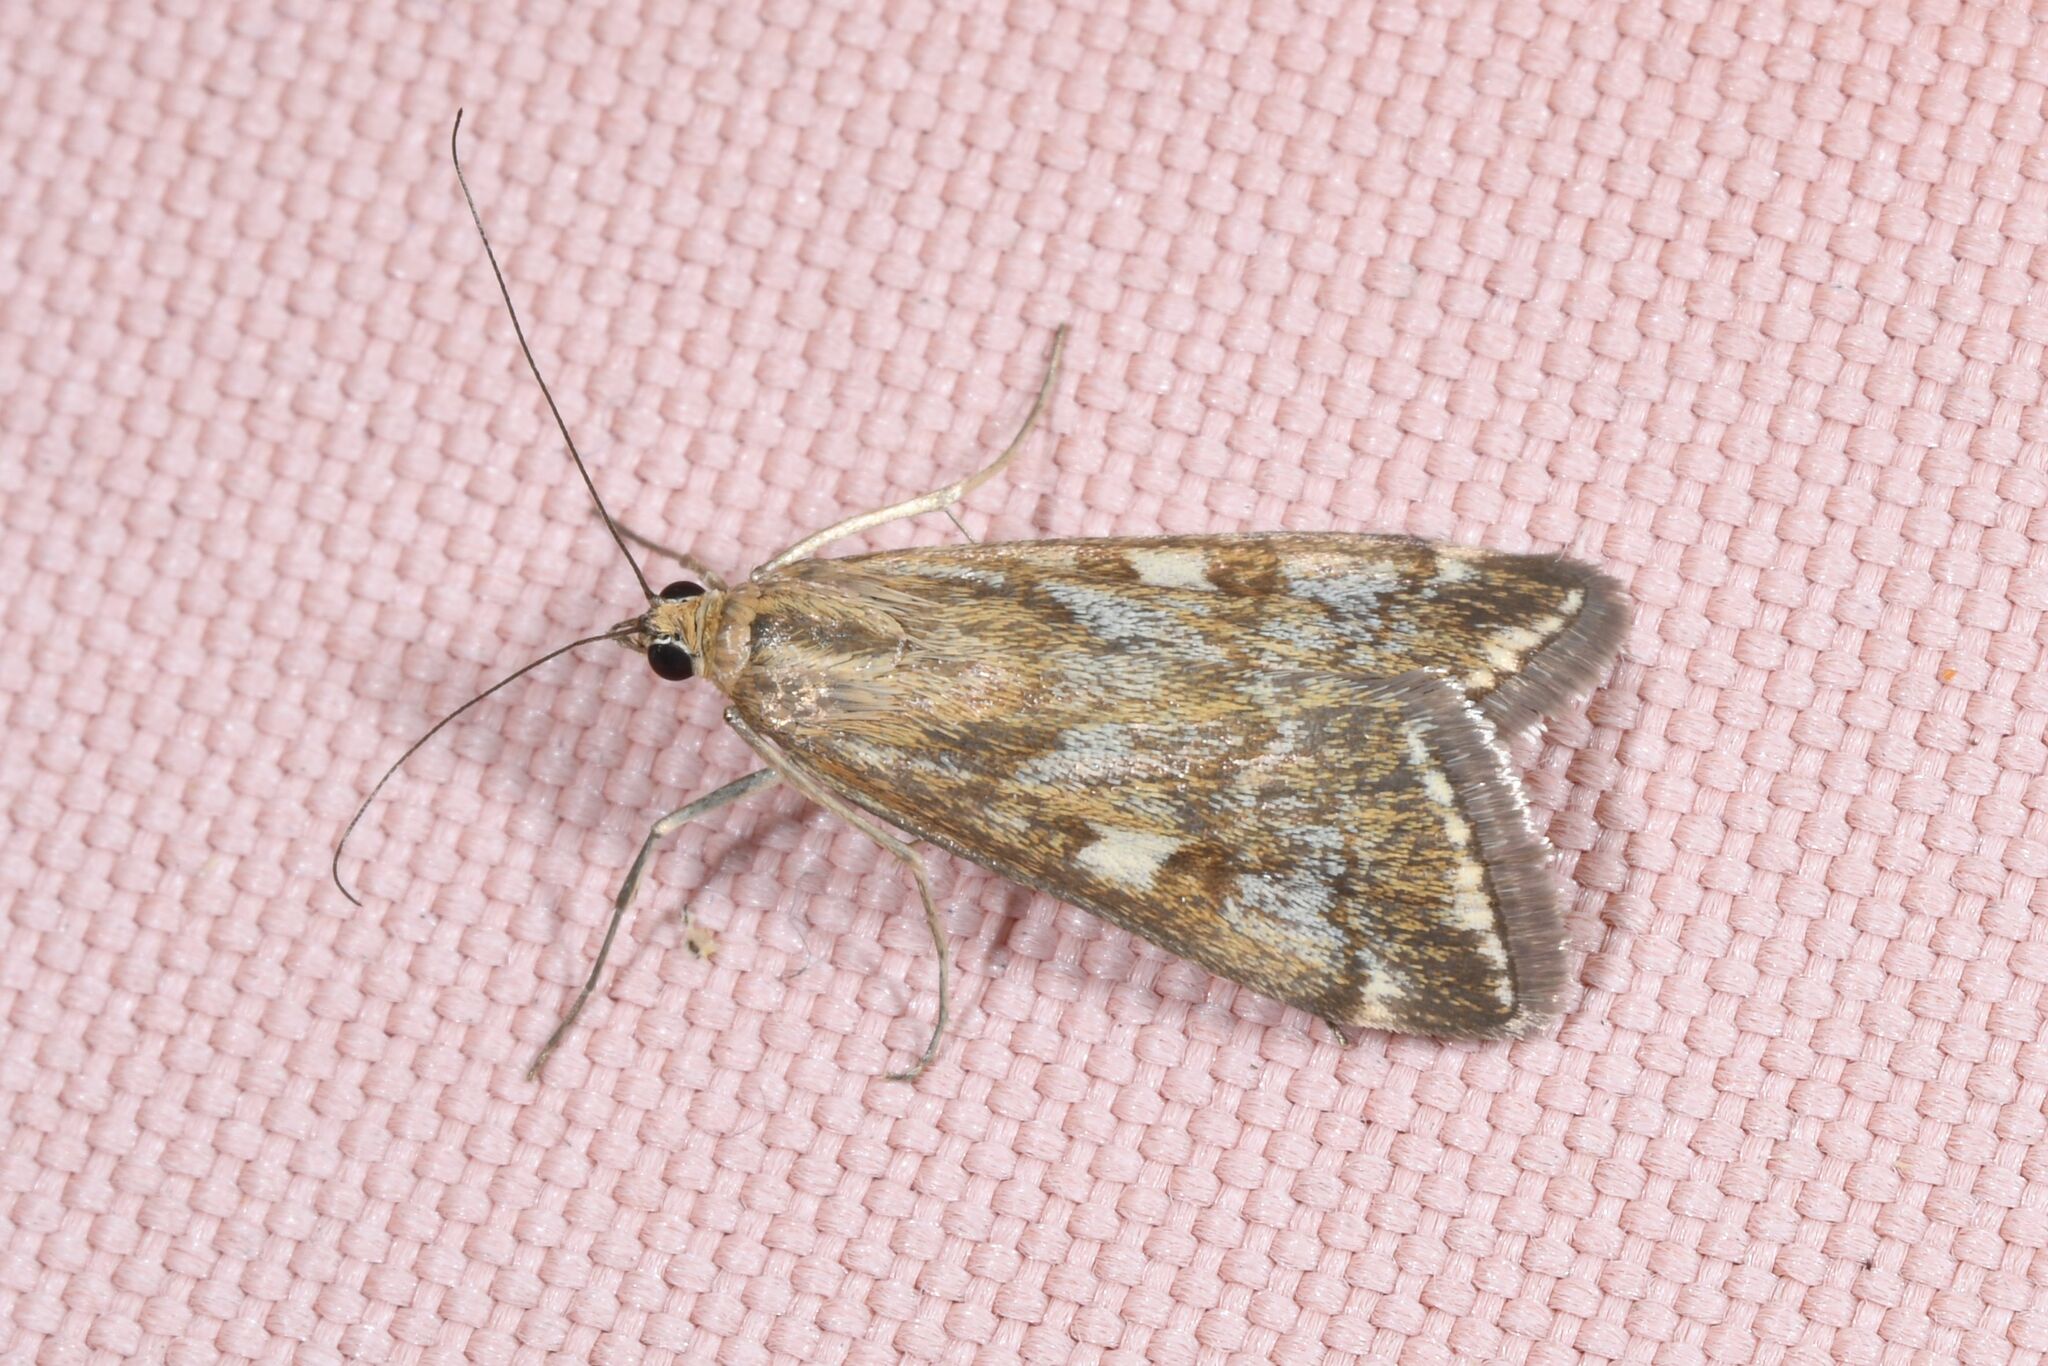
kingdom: Animalia
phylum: Arthropoda
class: Insecta
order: Lepidoptera
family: Crambidae
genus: Loxostege
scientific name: Loxostege sticticalis
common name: Crambid moth
